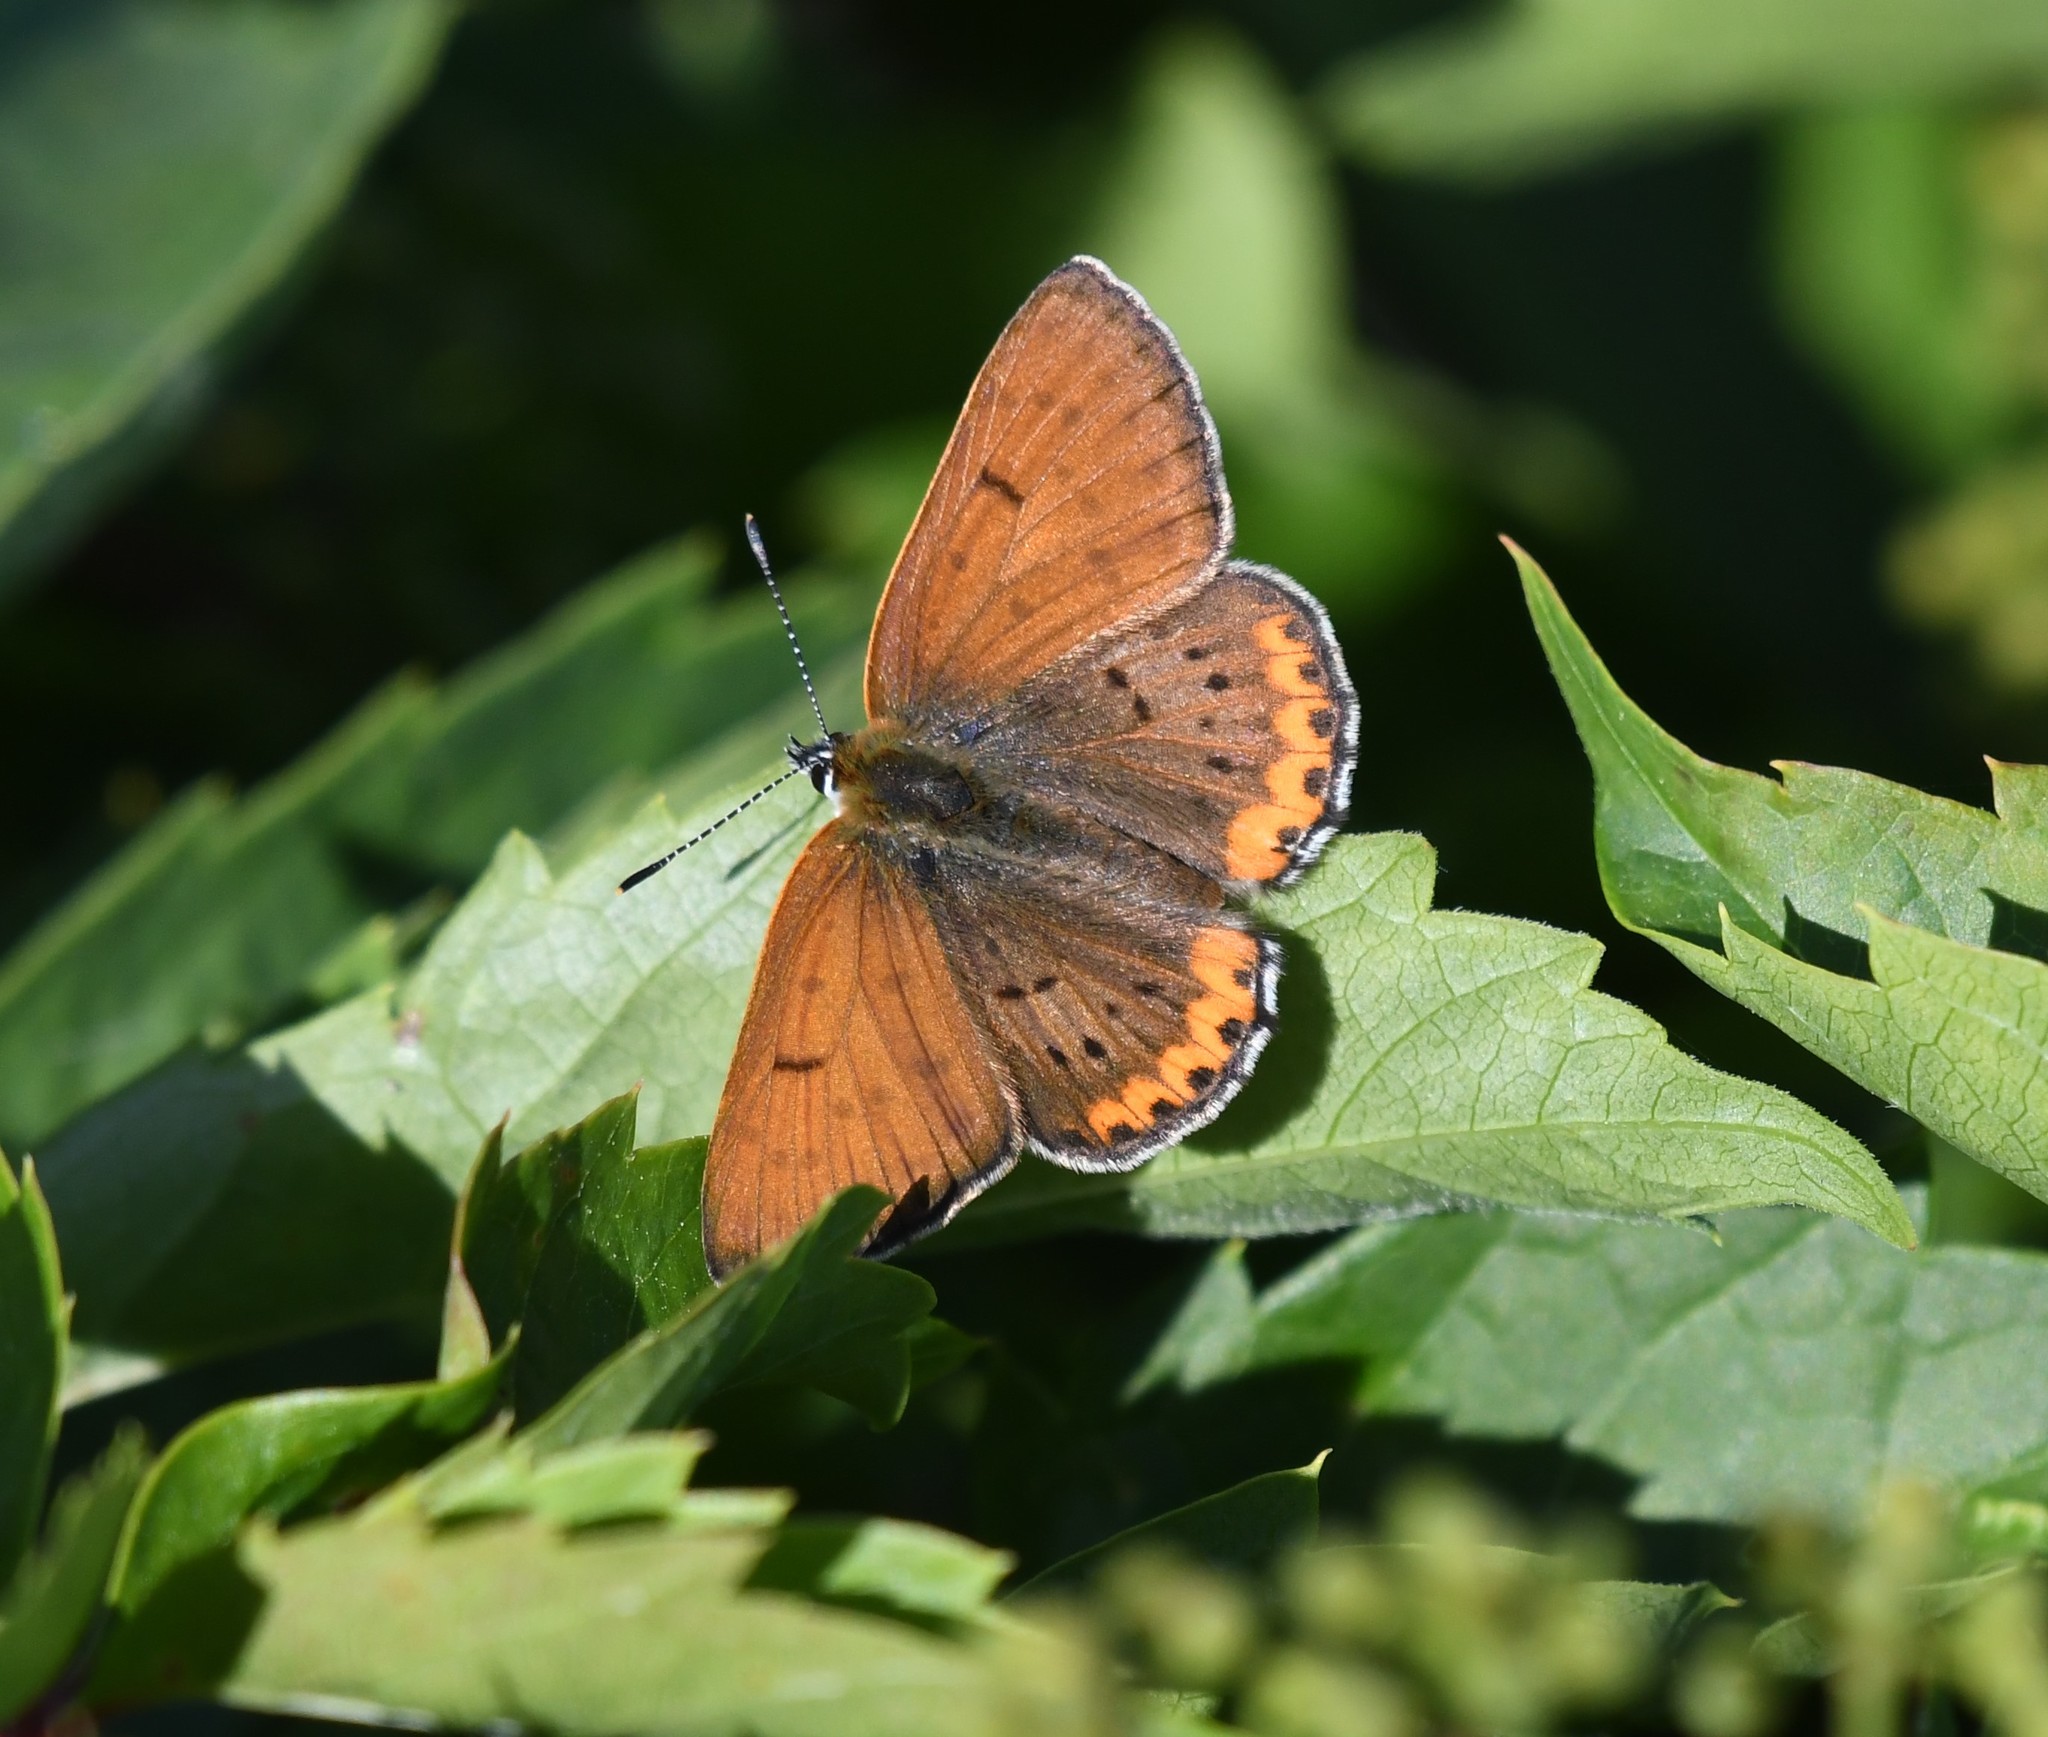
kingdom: Animalia
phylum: Arthropoda
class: Insecta
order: Lepidoptera
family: Lycaenidae
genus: Tharsalea
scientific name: Tharsalea hyllus
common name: Bronze copper
